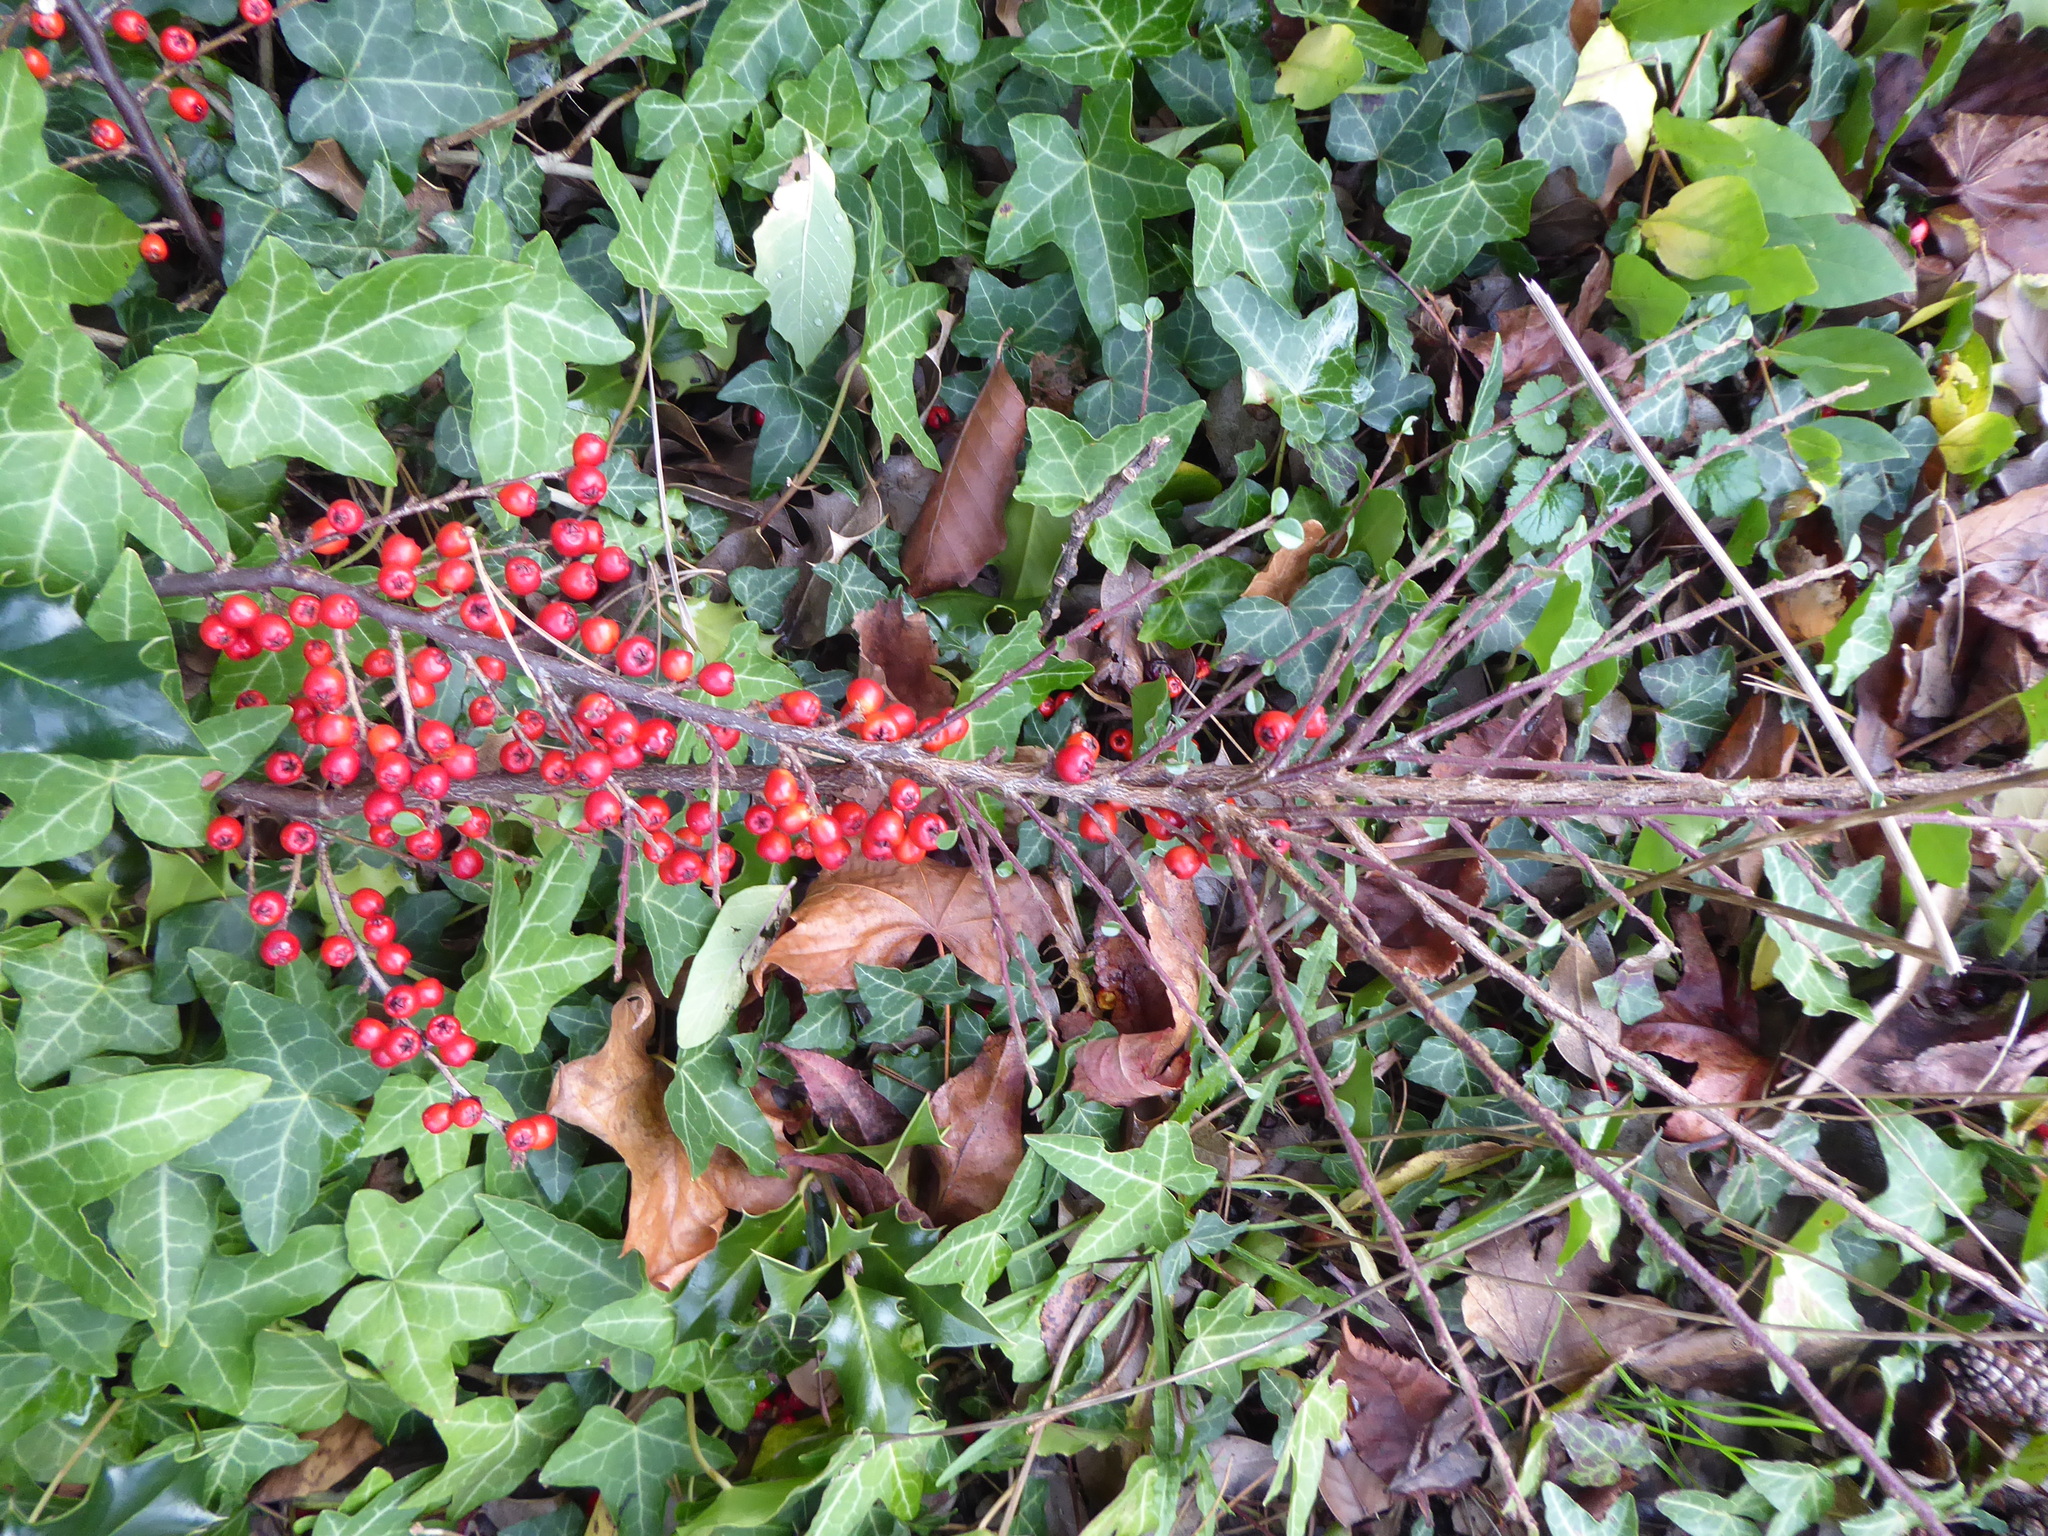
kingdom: Plantae
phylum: Tracheophyta
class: Magnoliopsida
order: Rosales
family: Rosaceae
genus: Cotoneaster
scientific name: Cotoneaster horizontalis
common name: Wall cotoneaster
